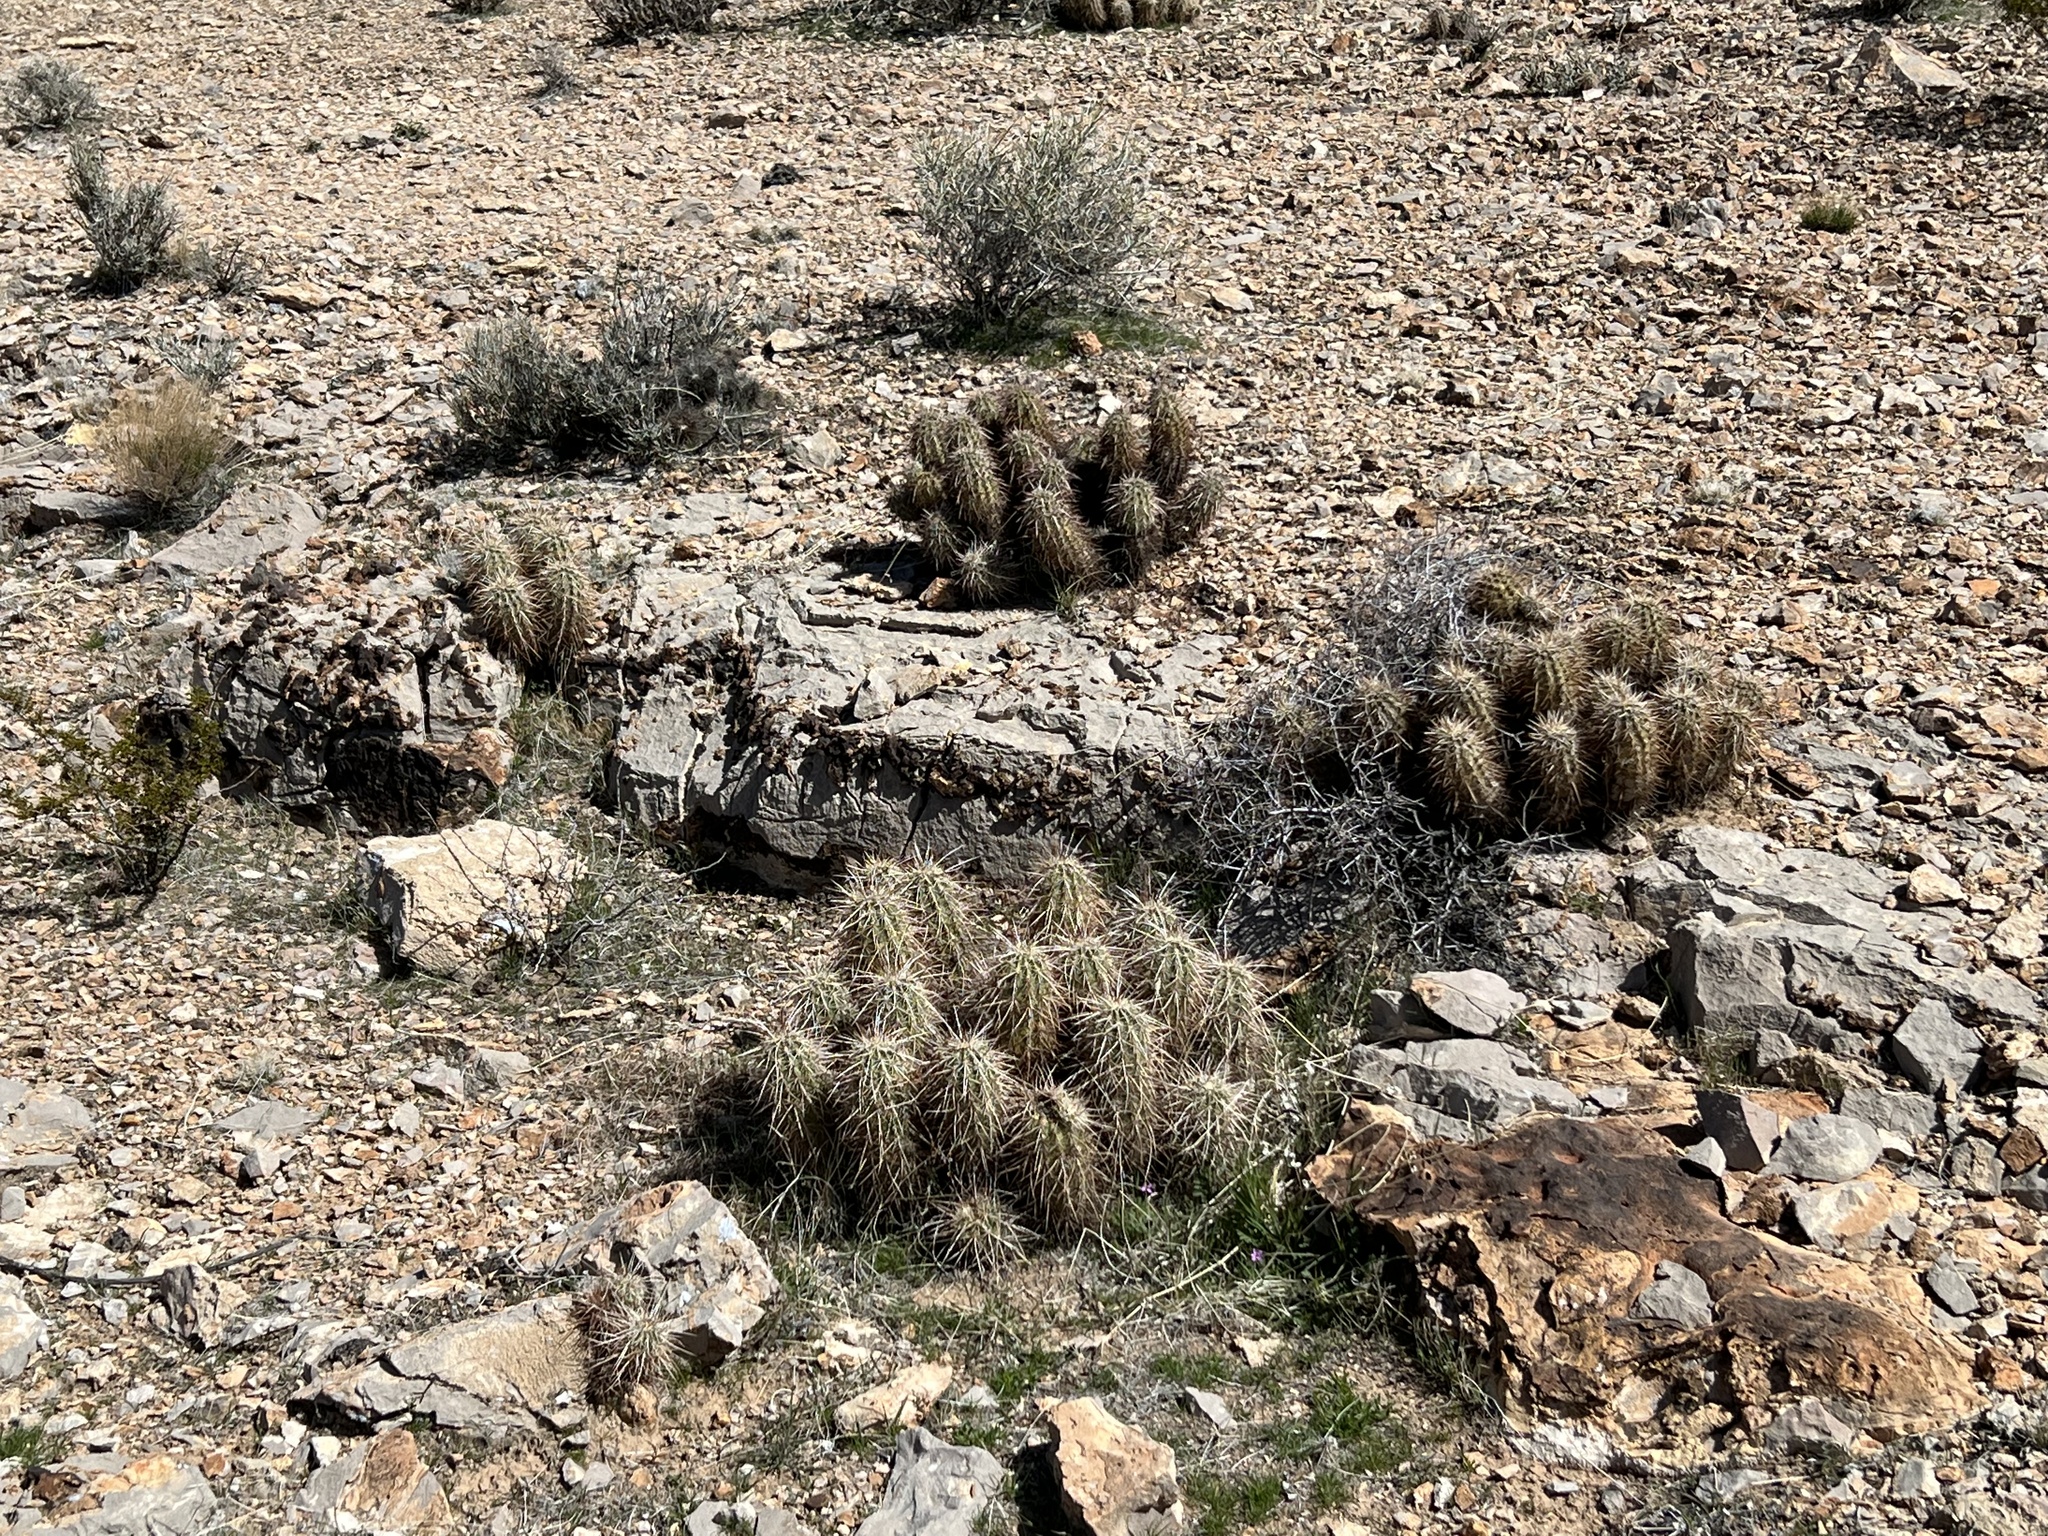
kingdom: Plantae
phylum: Tracheophyta
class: Magnoliopsida
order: Caryophyllales
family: Cactaceae
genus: Echinocereus
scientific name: Echinocereus engelmannii
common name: Engelmann's hedgehog cactus
